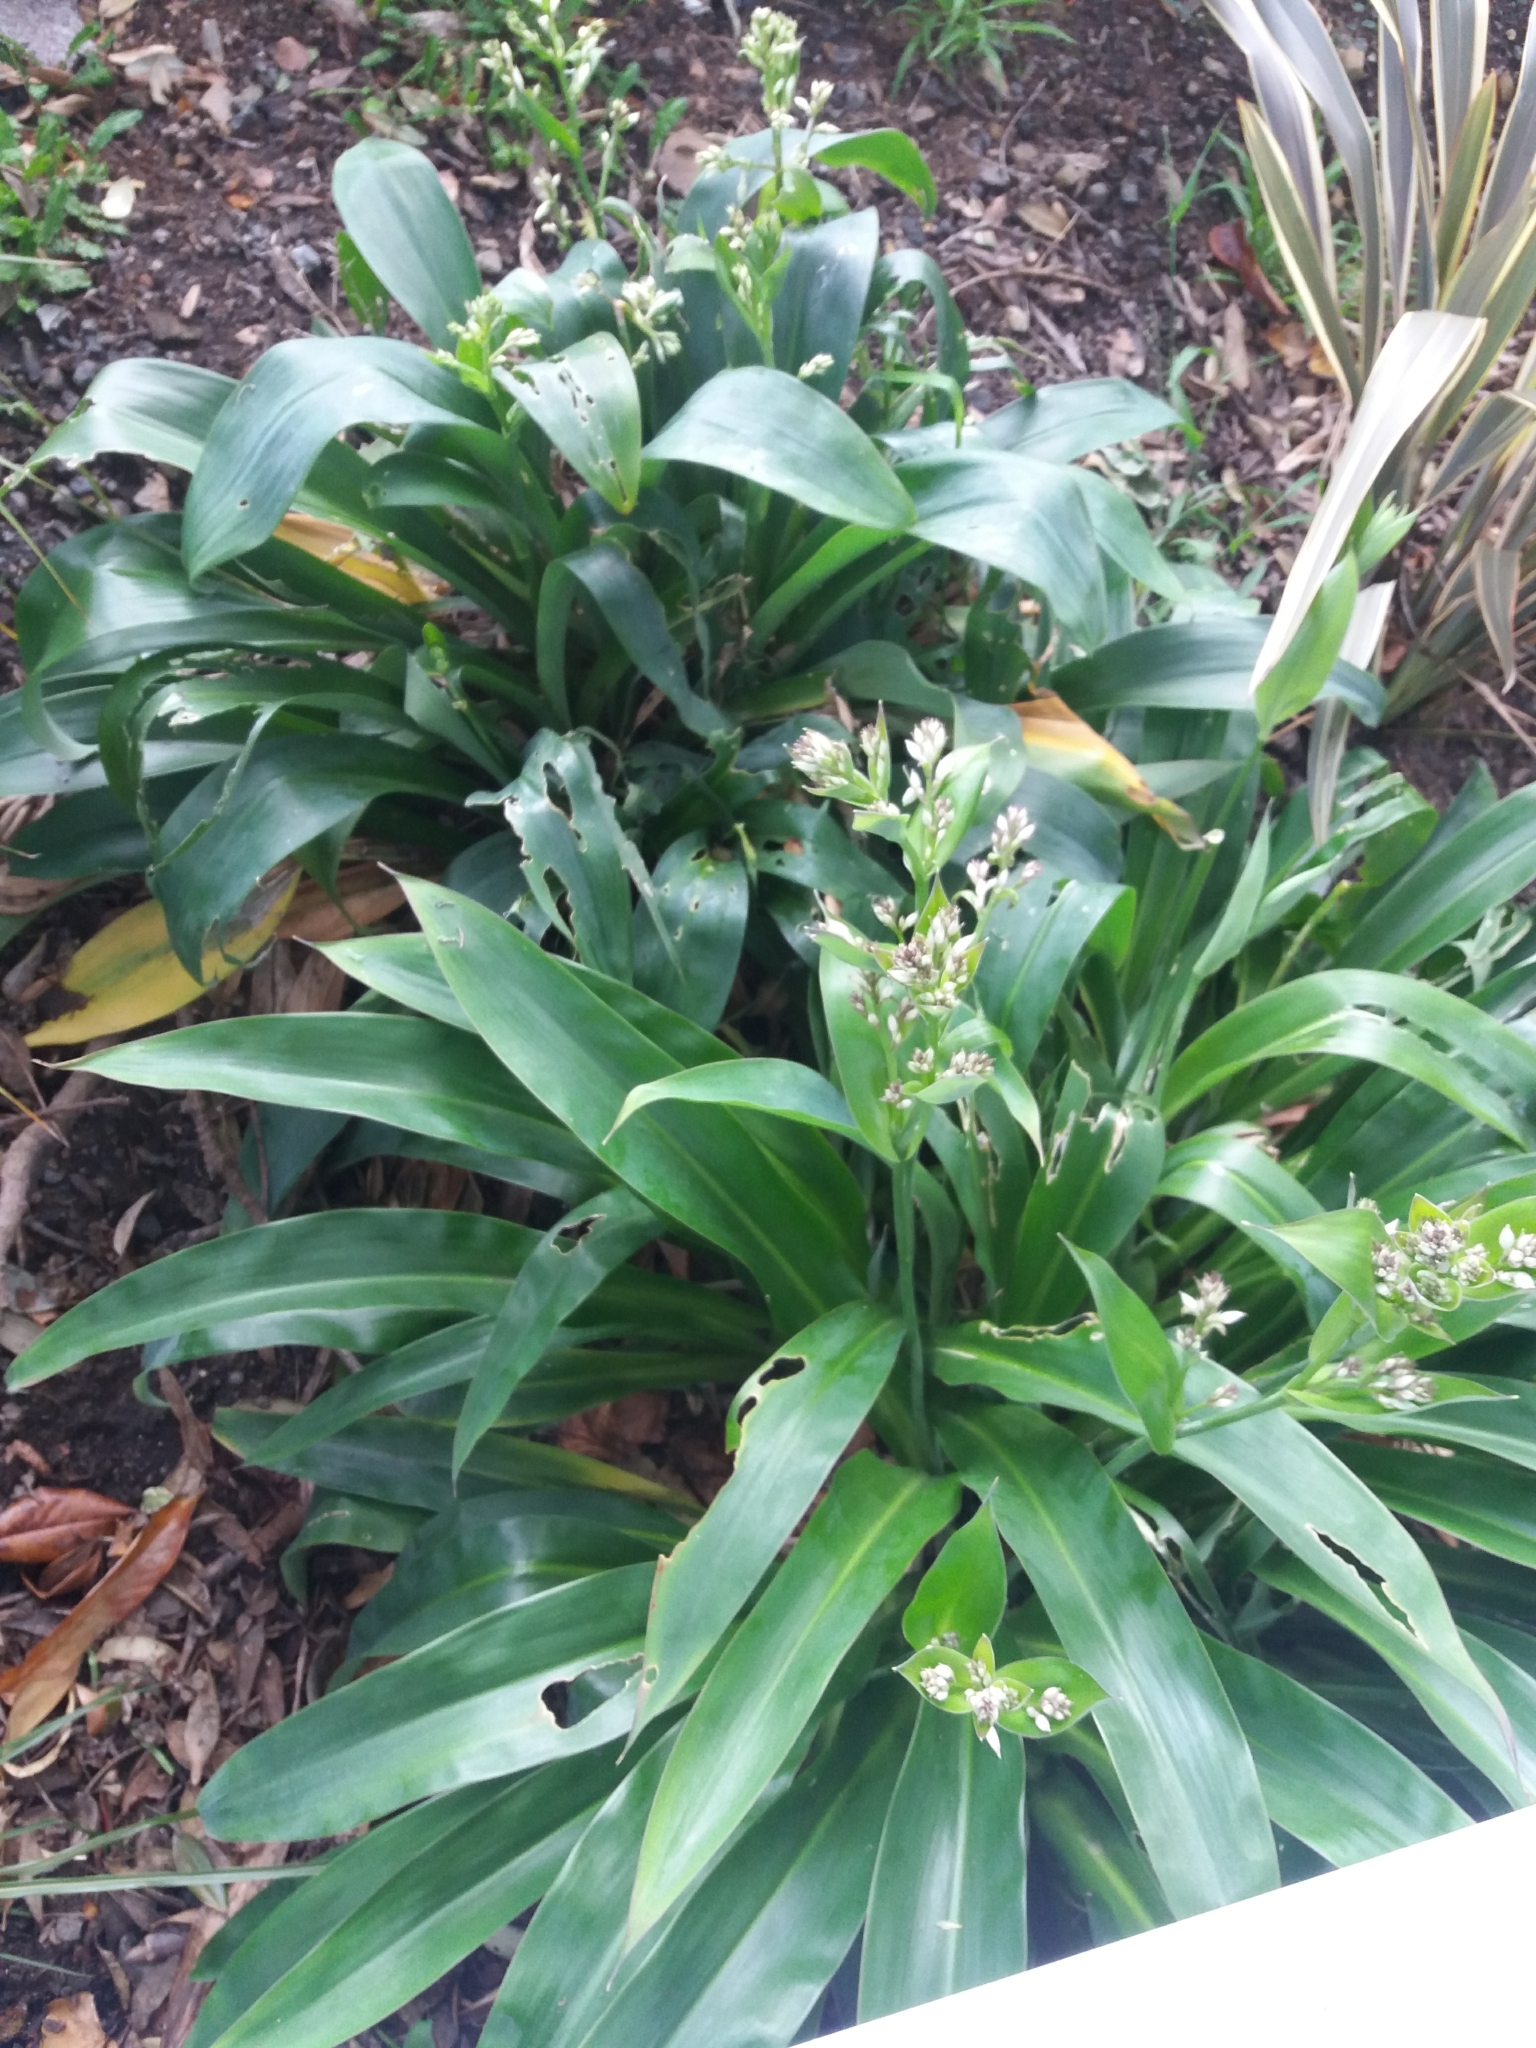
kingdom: Plantae
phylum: Tracheophyta
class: Liliopsida
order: Asparagales
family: Asparagaceae
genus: Arthropodium
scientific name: Arthropodium cirratum
